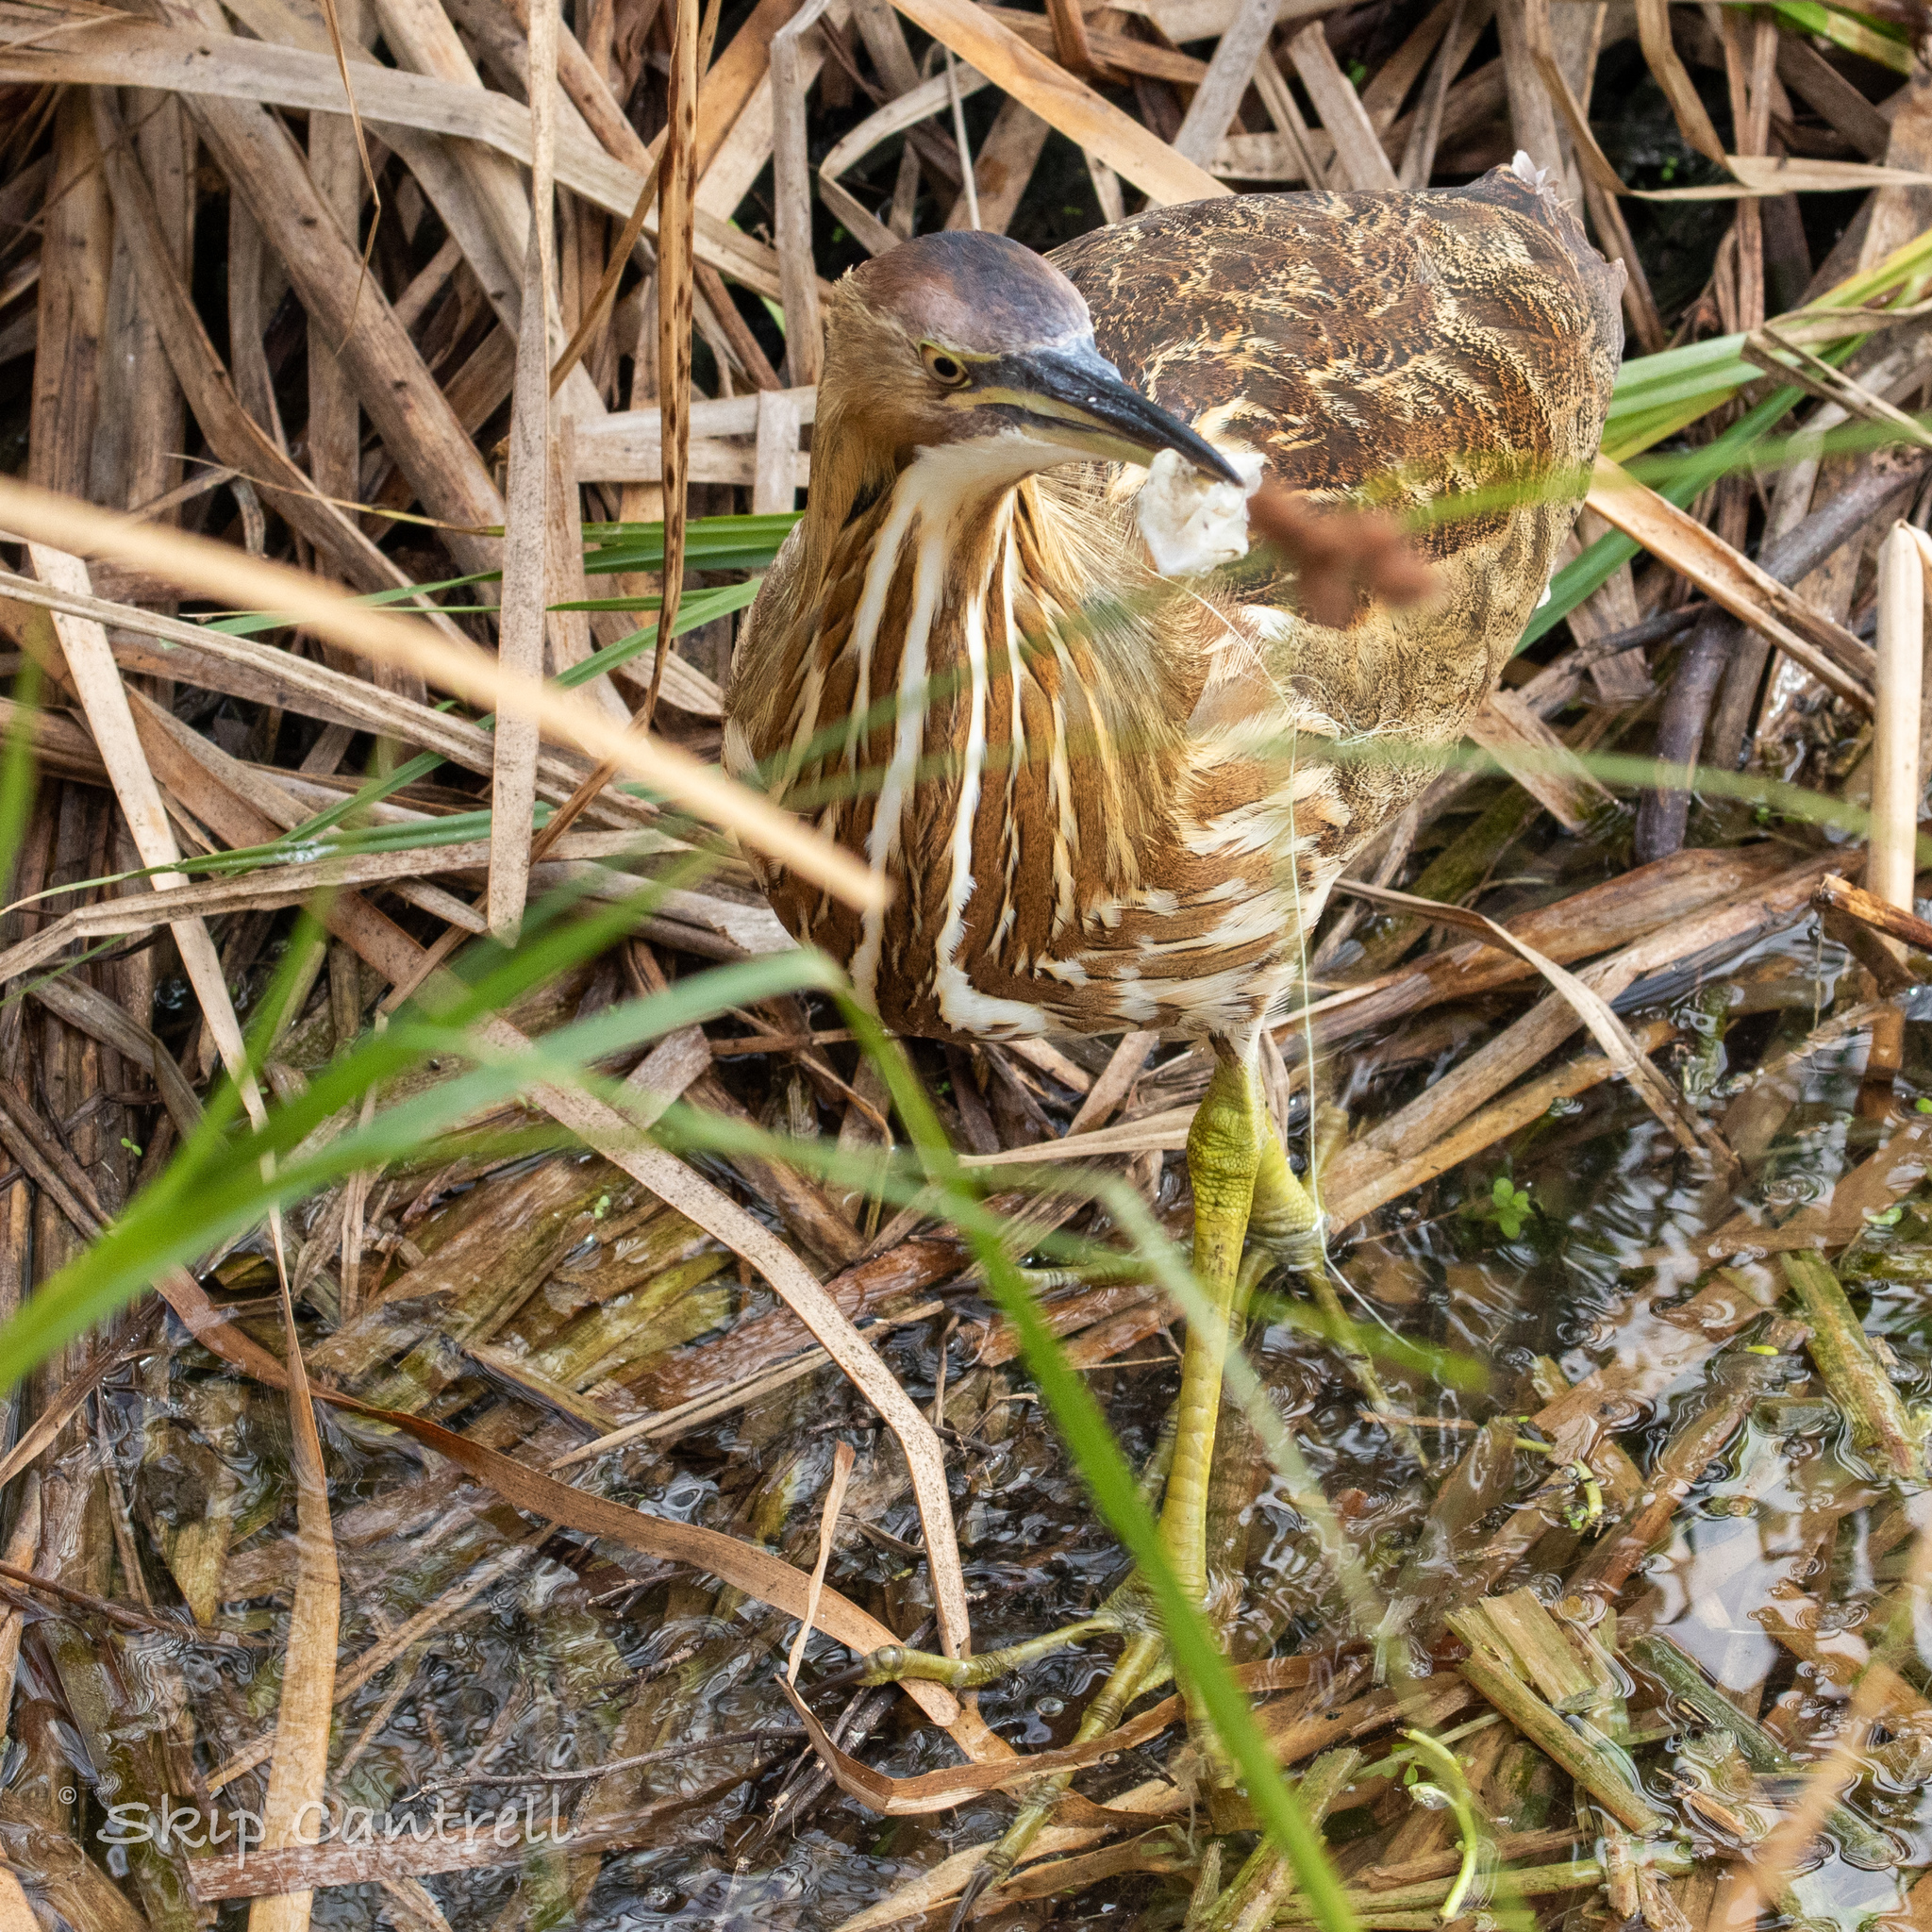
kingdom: Animalia
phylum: Chordata
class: Aves
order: Pelecaniformes
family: Ardeidae
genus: Botaurus
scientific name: Botaurus lentiginosus
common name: American bittern
